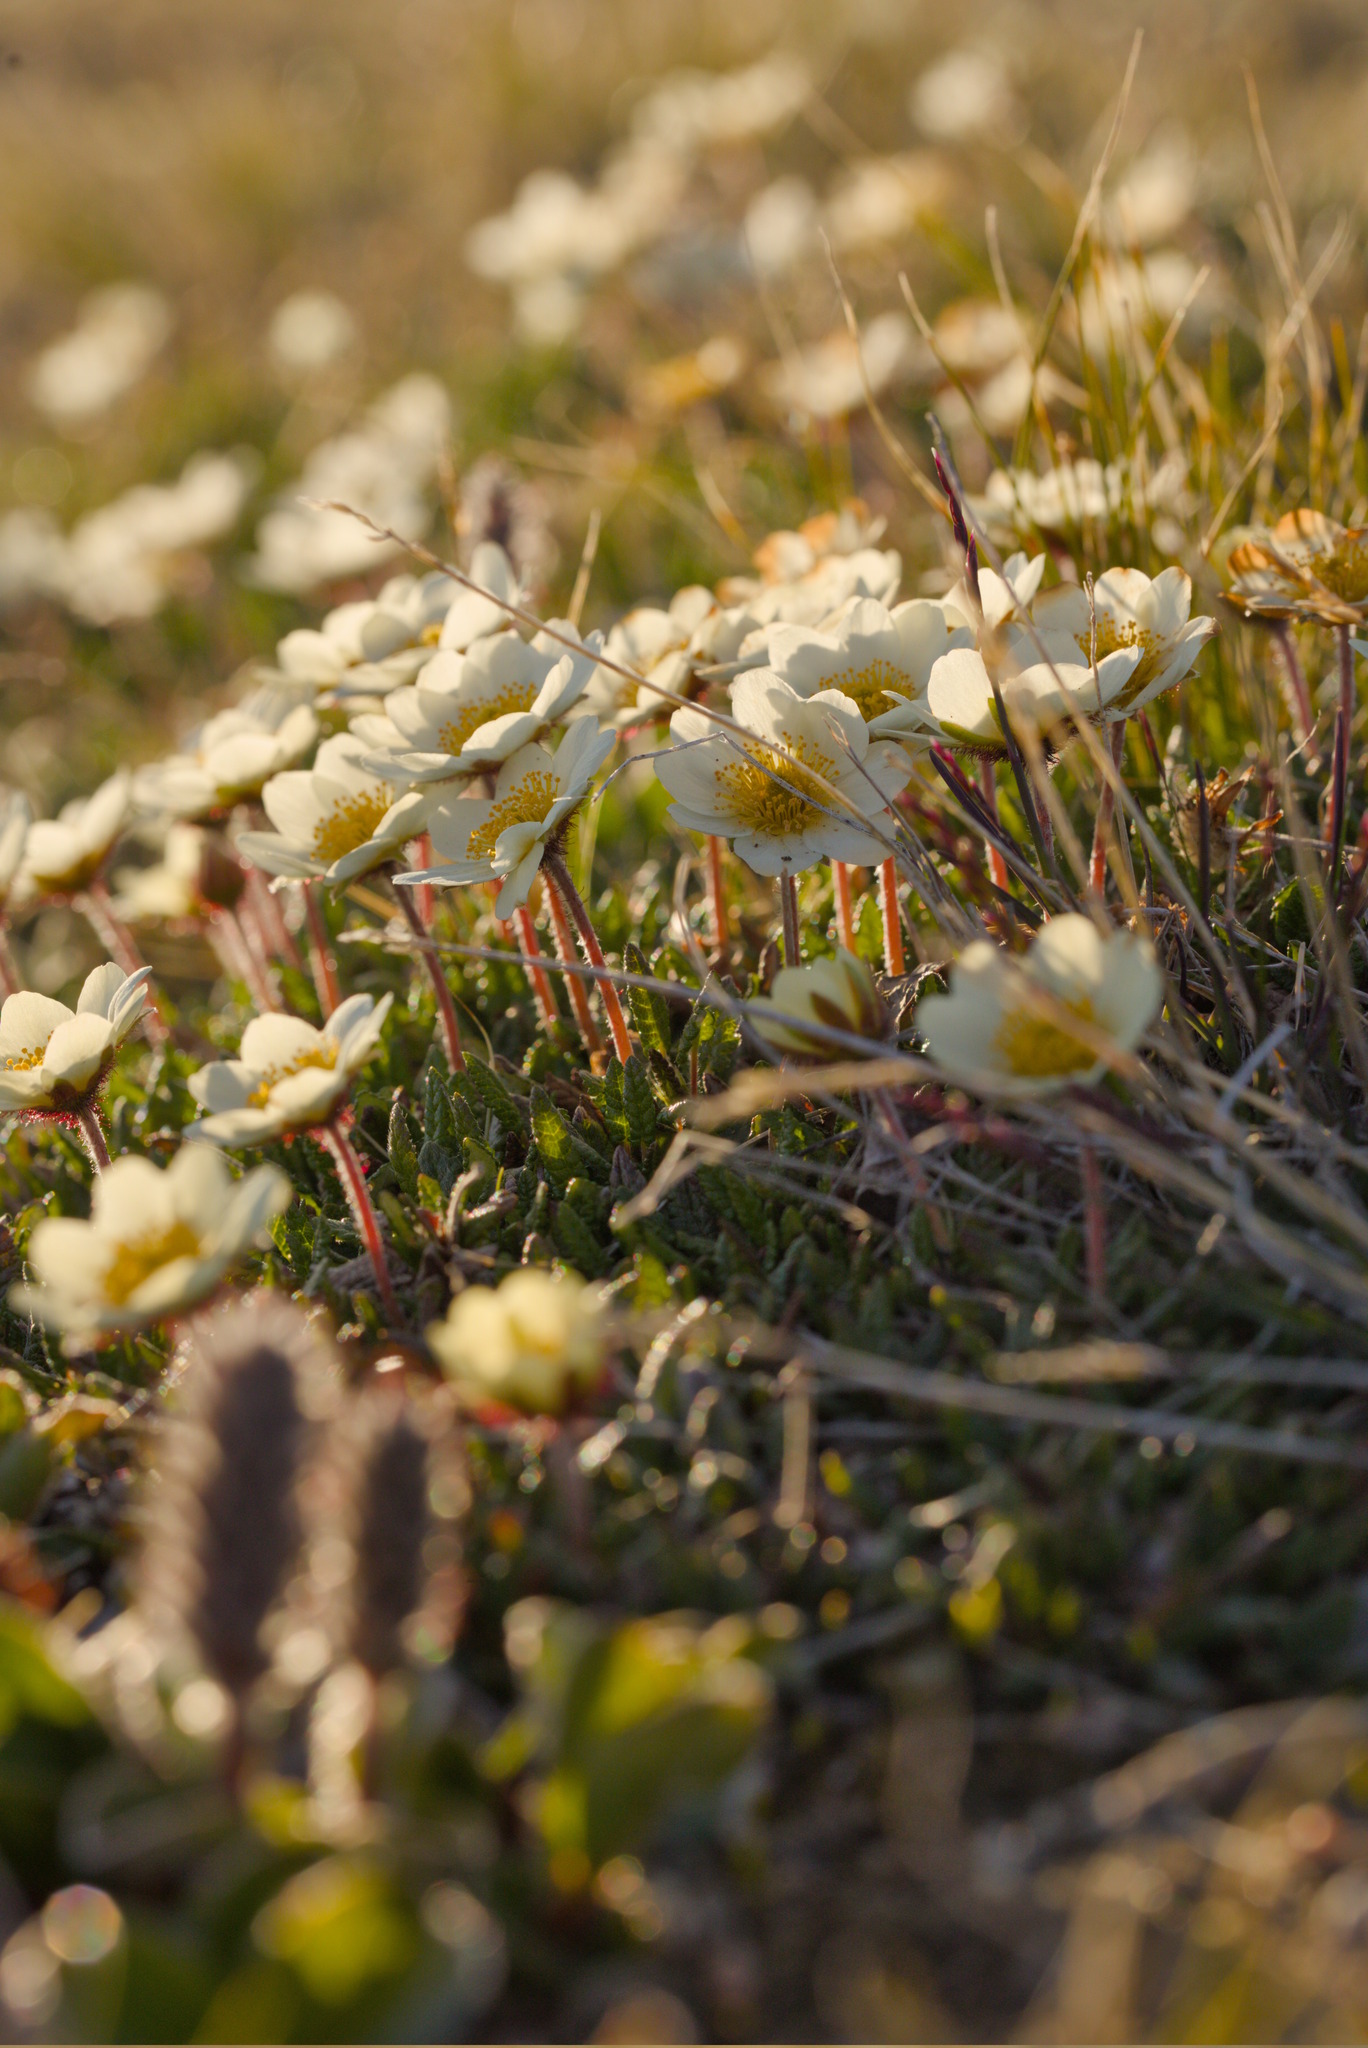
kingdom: Plantae
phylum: Tracheophyta
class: Magnoliopsida
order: Rosales
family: Rosaceae
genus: Dryas
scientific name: Dryas octopetala
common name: Eight-petal mountain-avens
